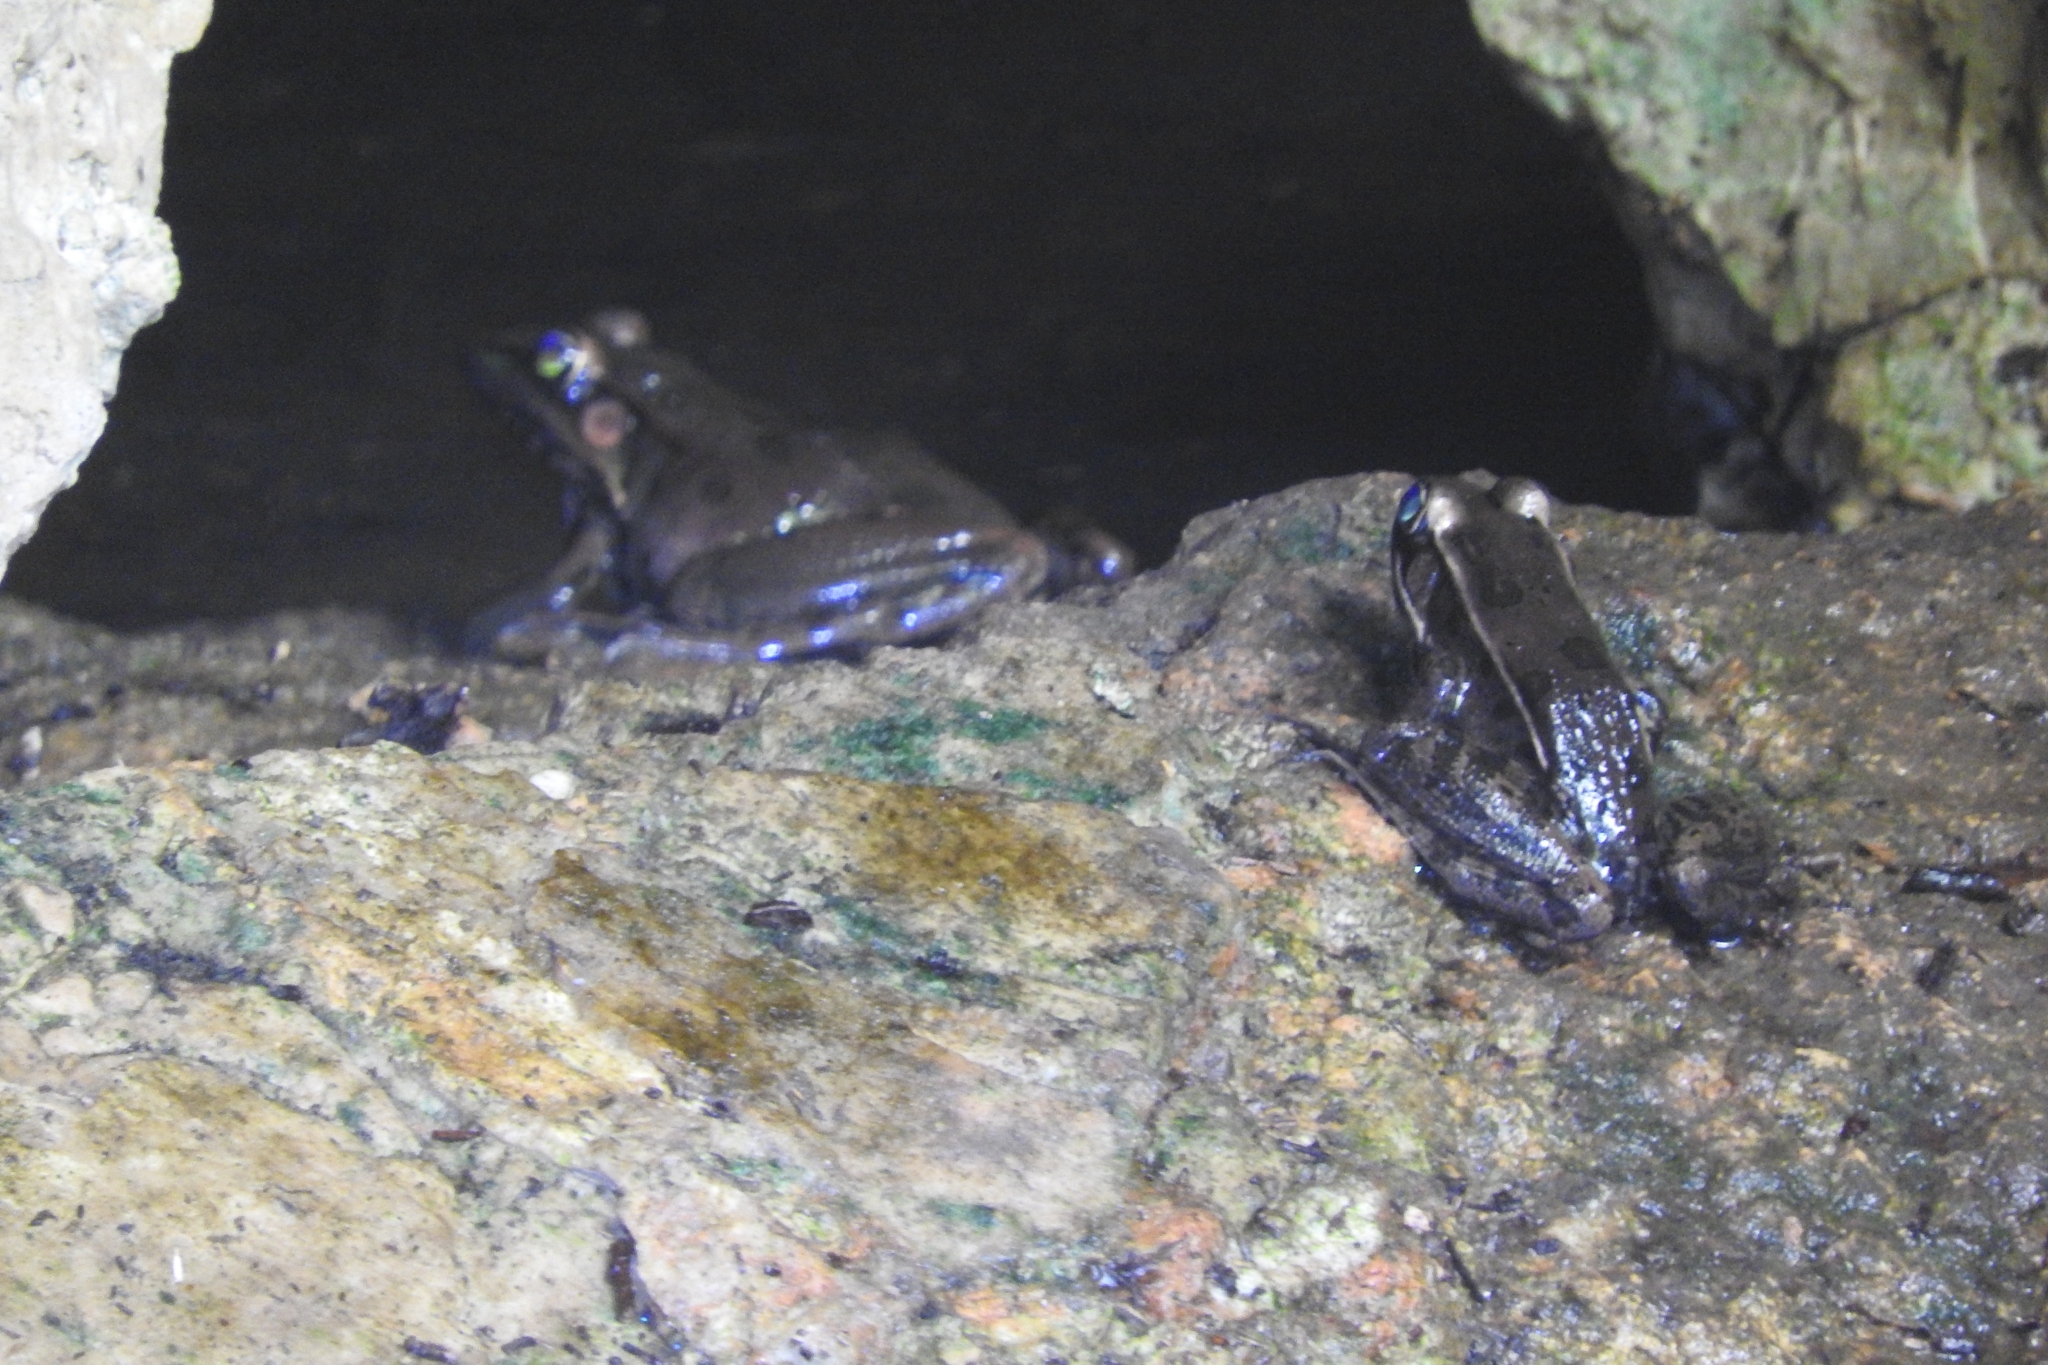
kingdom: Animalia
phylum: Chordata
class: Amphibia
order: Anura
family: Ranidae
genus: Lithobates
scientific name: Lithobates brownorum
